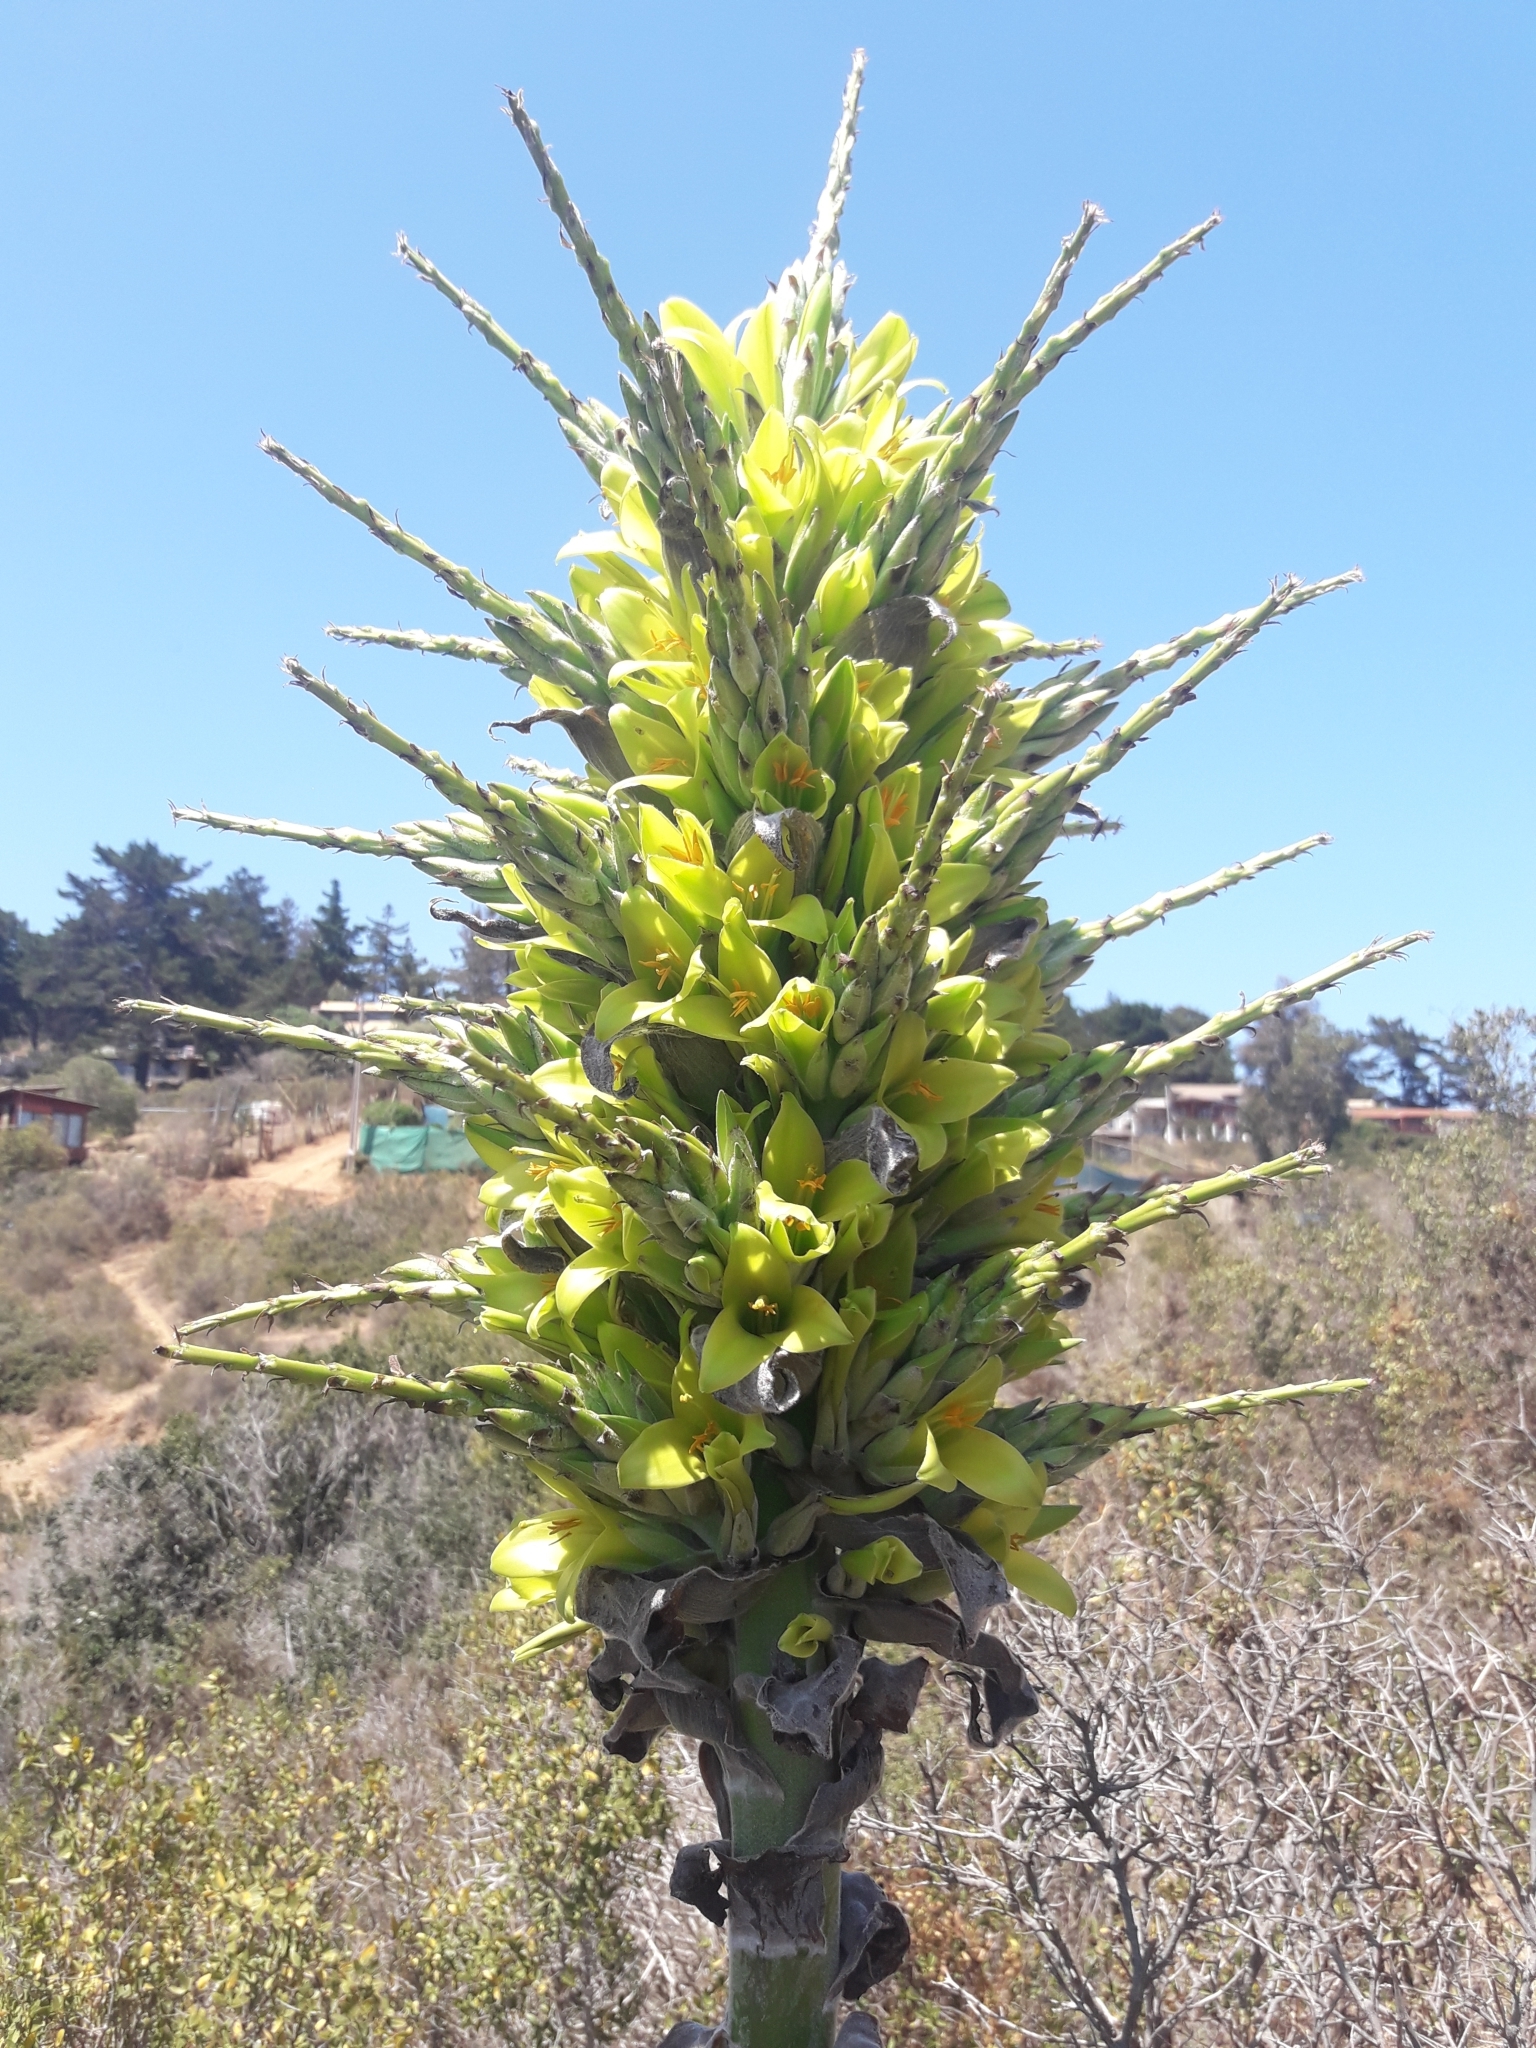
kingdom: Plantae
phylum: Tracheophyta
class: Liliopsida
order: Poales
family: Bromeliaceae
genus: Puya
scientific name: Puya chilensis
